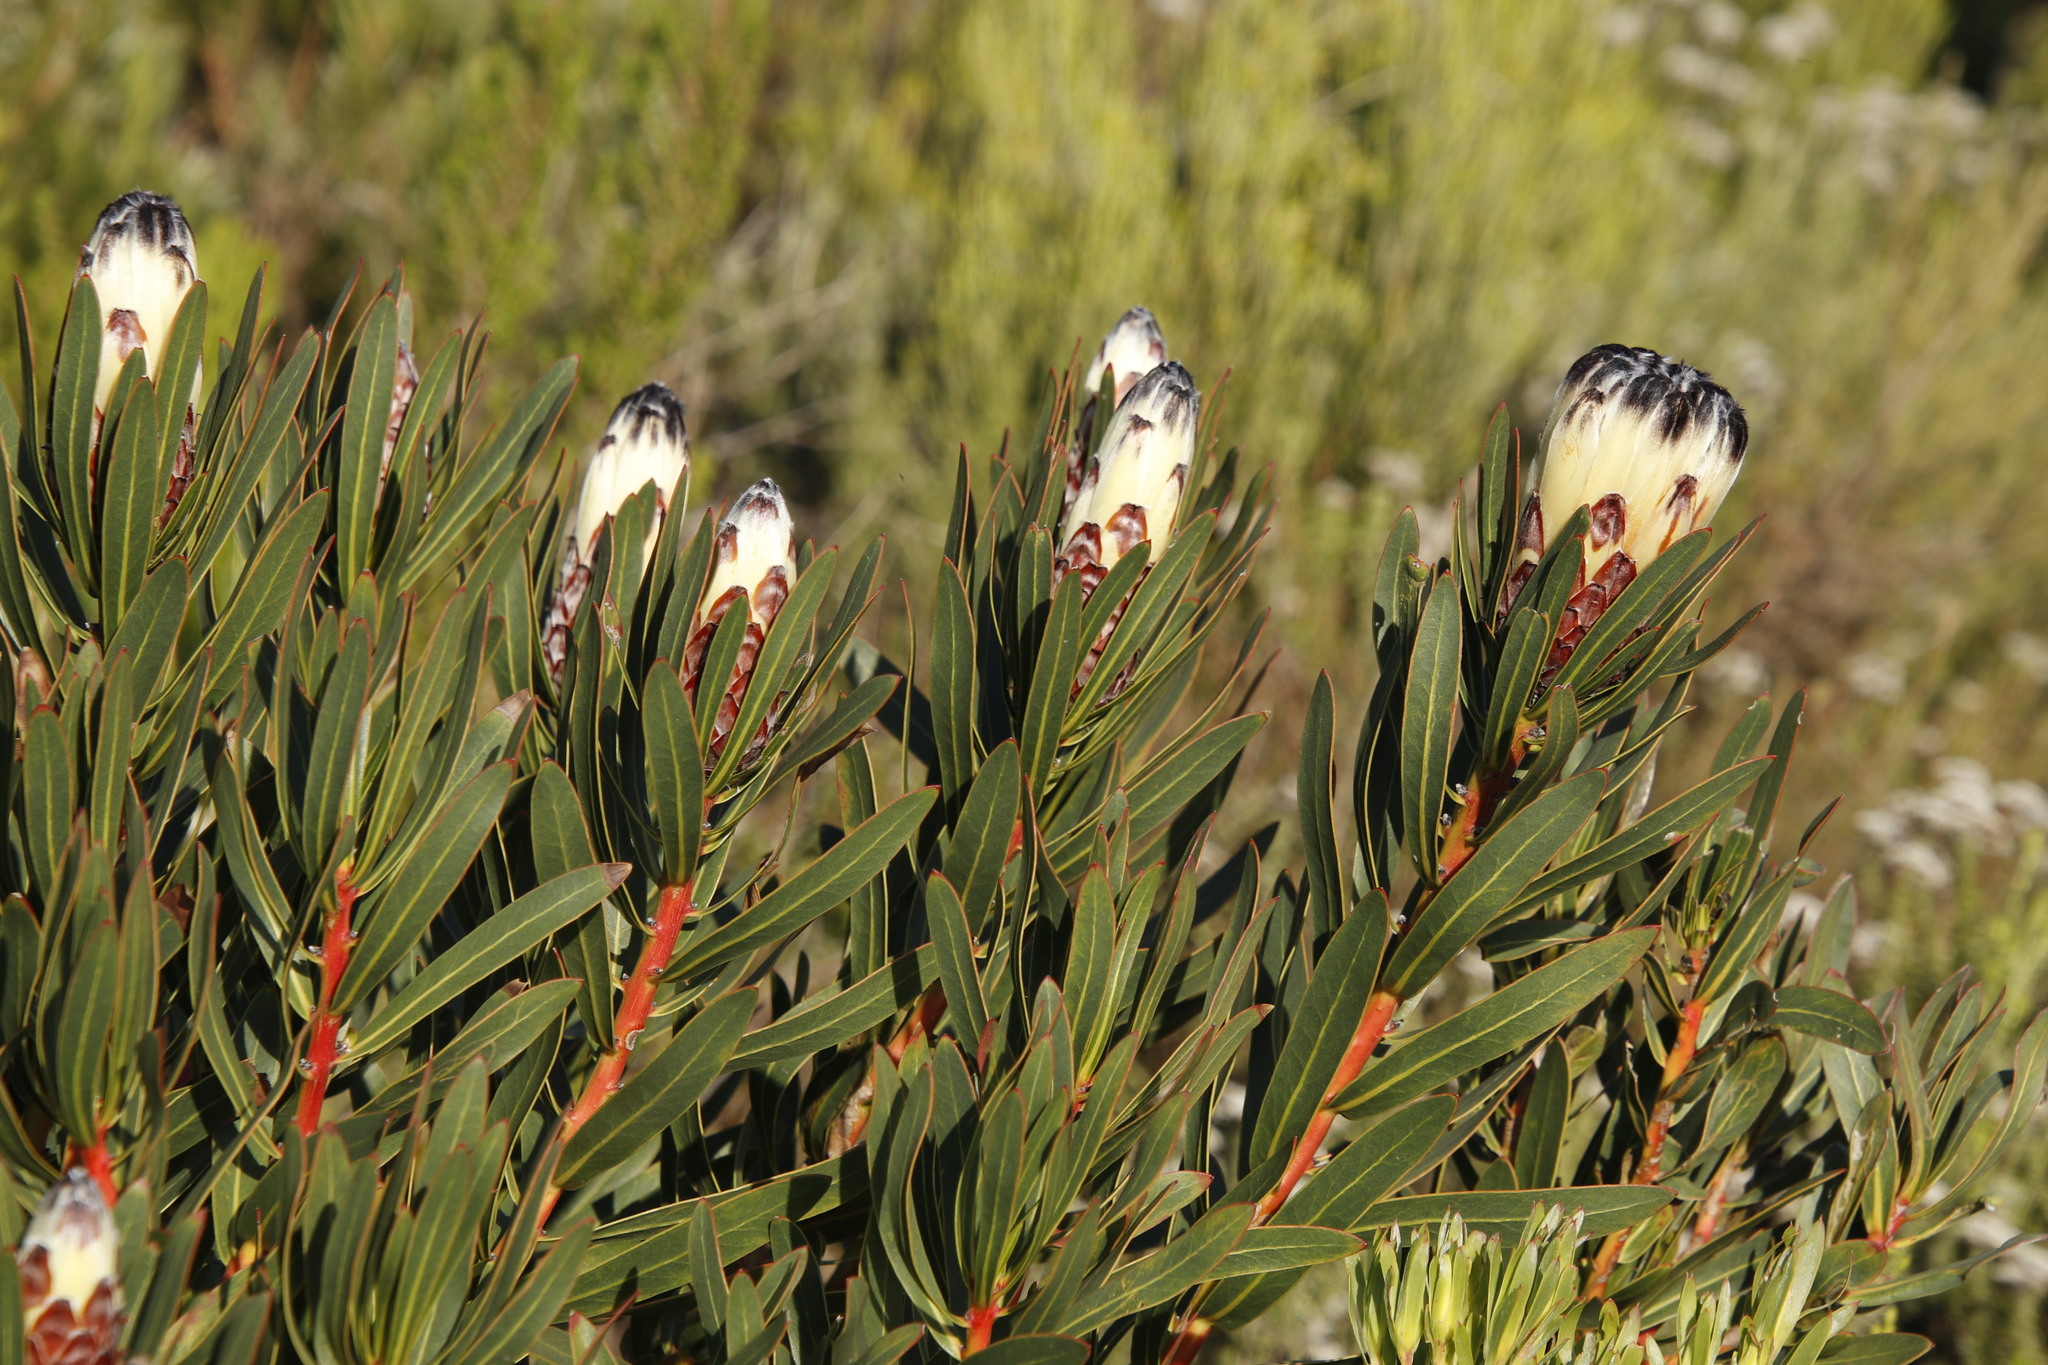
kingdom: Plantae
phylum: Tracheophyta
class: Magnoliopsida
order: Proteales
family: Proteaceae
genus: Protea
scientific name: Protea lepidocarpodendron
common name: Black-bearded protea
